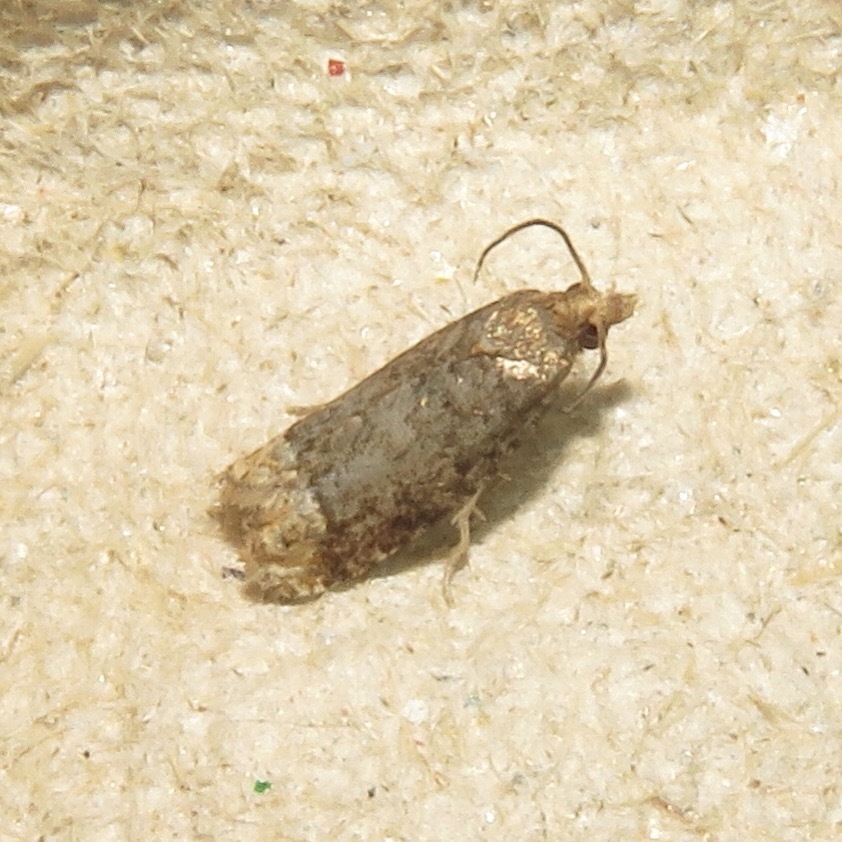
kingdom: Animalia
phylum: Arthropoda
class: Insecta
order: Lepidoptera
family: Tortricidae
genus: Eucosma
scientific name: Eucosma ochroterminana
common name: Buff-tipped eucosma moth
